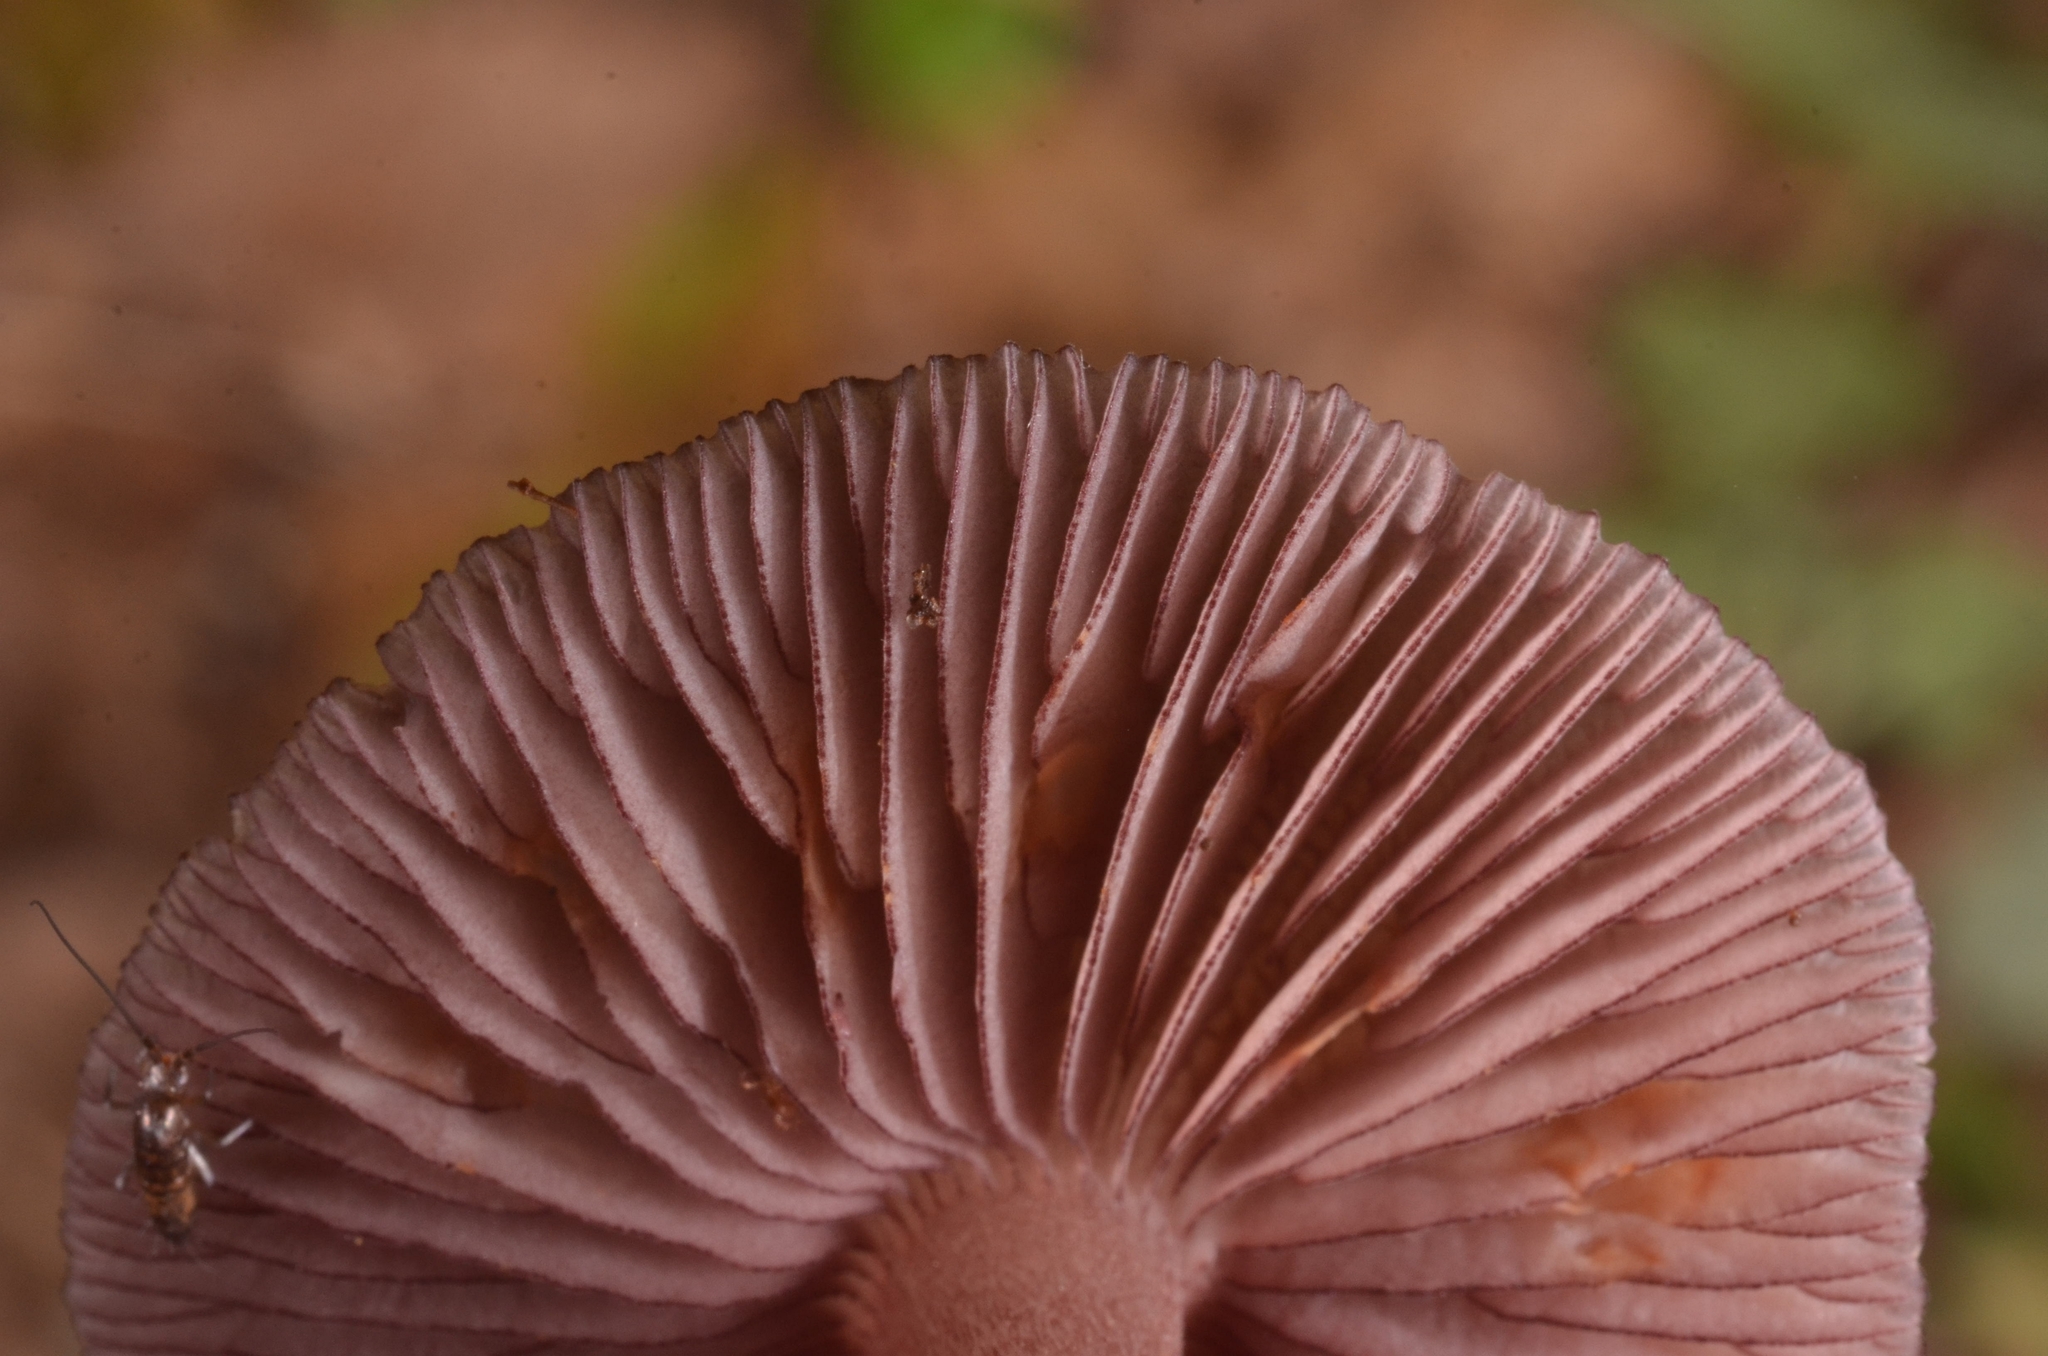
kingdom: Fungi
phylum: Basidiomycota
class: Agaricomycetes
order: Agaricales
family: Mycenaceae
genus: Mycena
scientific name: Mycena pelianthina
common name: Blackedge bonnet
